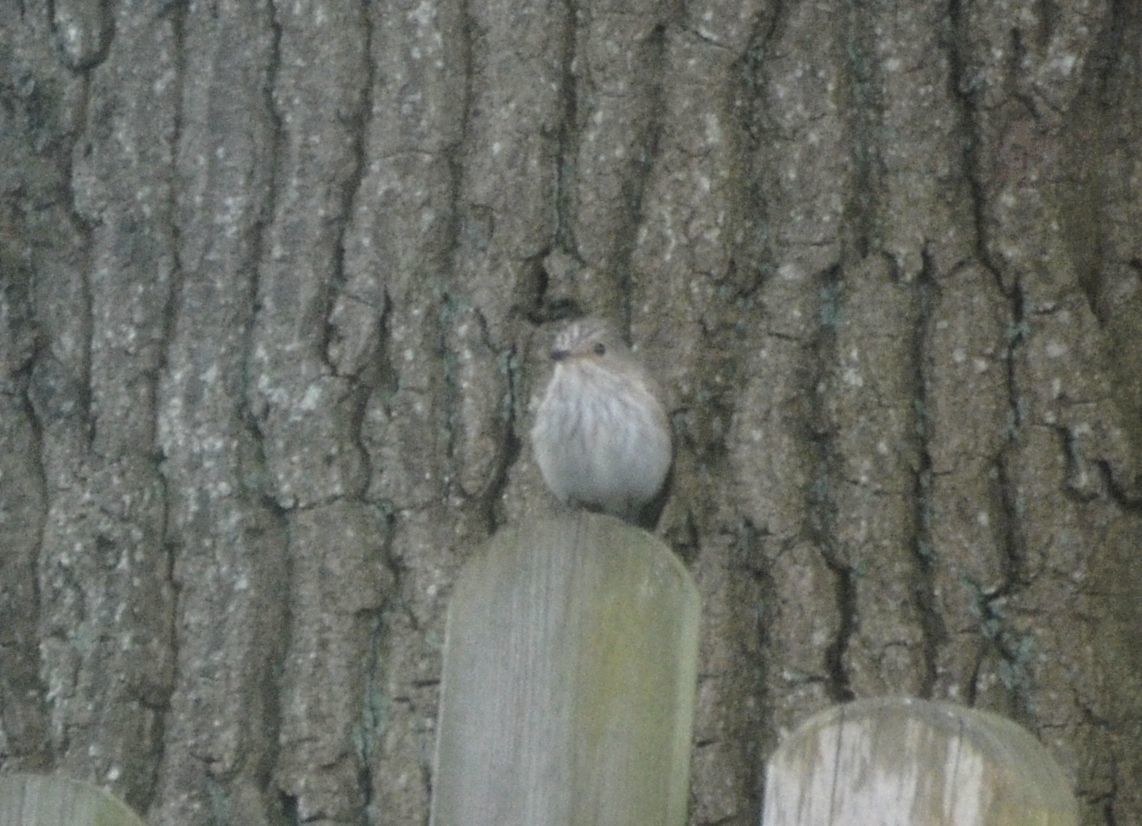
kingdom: Animalia
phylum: Chordata
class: Aves
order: Passeriformes
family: Muscicapidae
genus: Muscicapa
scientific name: Muscicapa striata
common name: Spotted flycatcher
